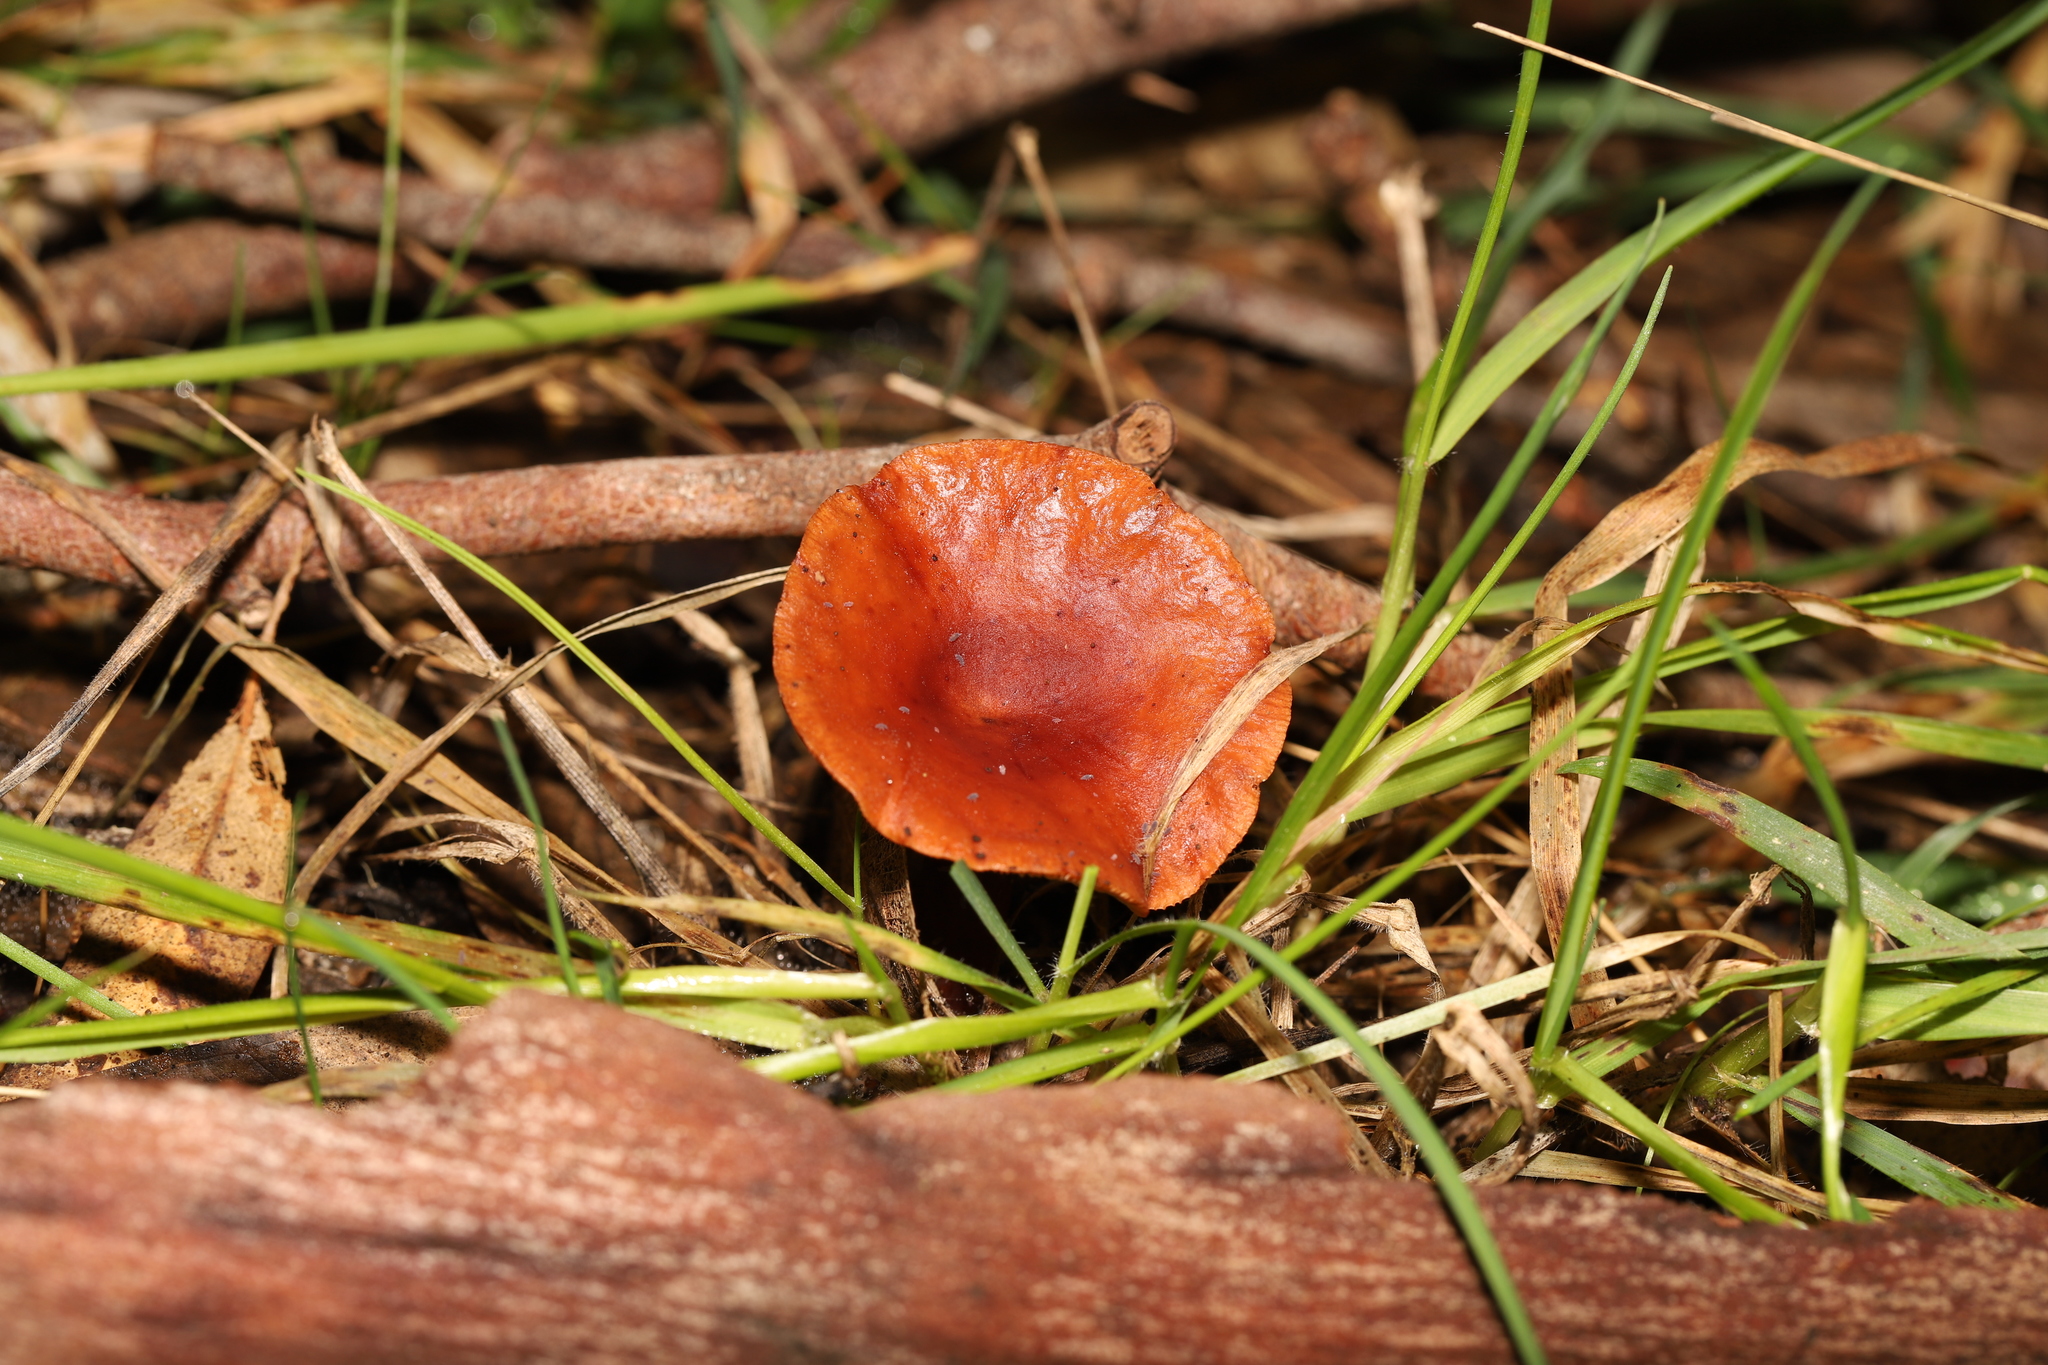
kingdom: Fungi
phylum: Basidiomycota
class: Agaricomycetes
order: Russulales
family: Russulaceae
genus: Lactarius
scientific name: Lactarius eucalypti
